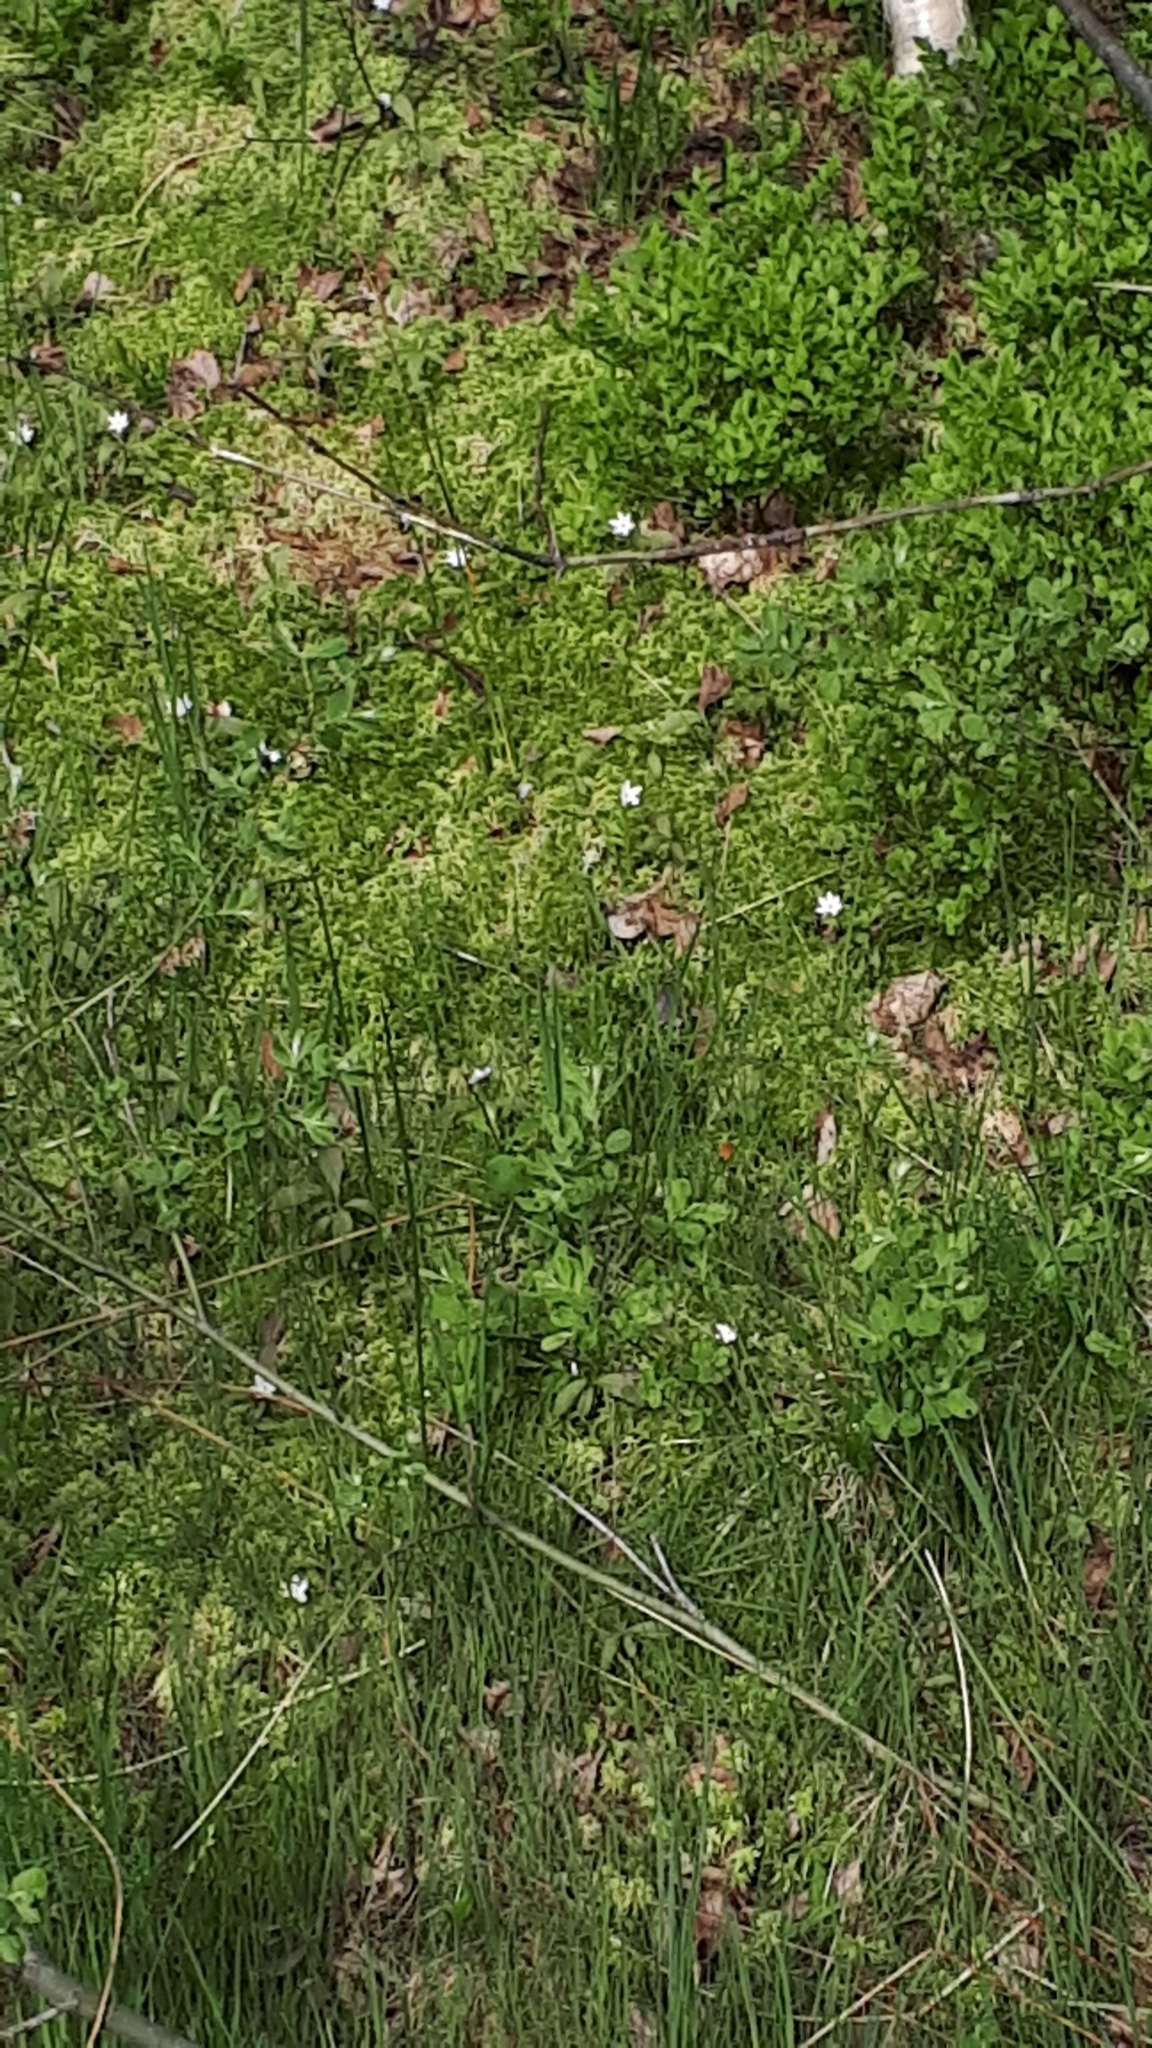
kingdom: Plantae
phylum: Tracheophyta
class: Magnoliopsida
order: Ericales
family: Primulaceae
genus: Lysimachia
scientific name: Lysimachia europaea
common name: Arctic starflower
